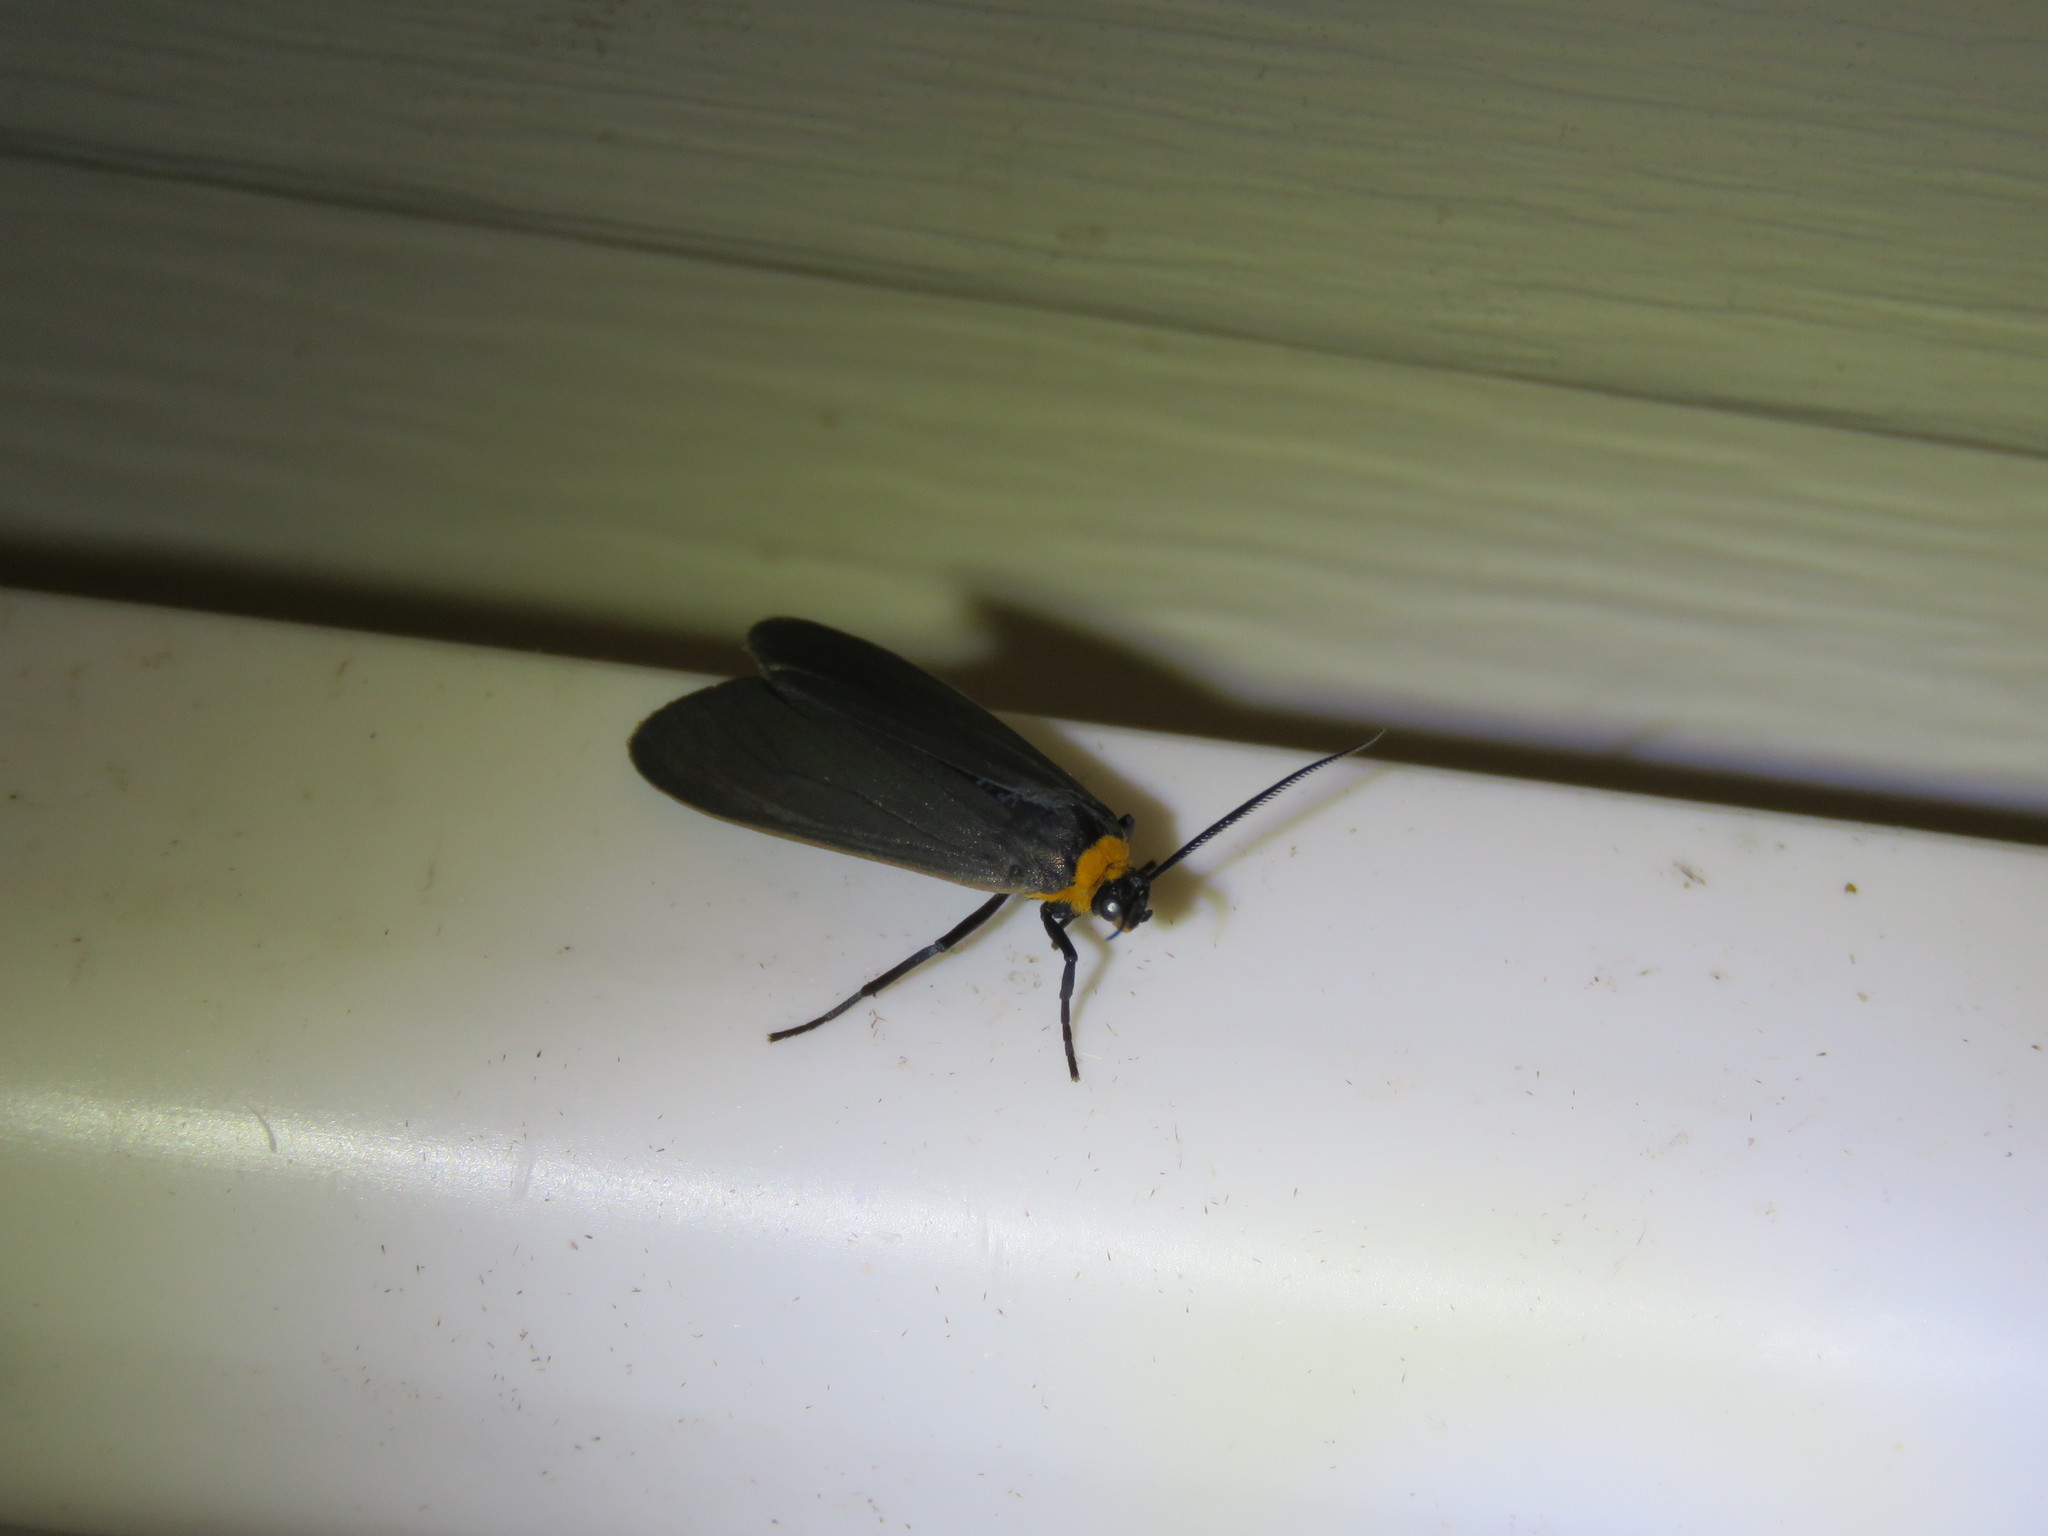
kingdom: Animalia
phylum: Arthropoda
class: Insecta
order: Lepidoptera
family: Erebidae
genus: Cisseps
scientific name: Cisseps fulvicollis
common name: Yellow-collared scape moth
